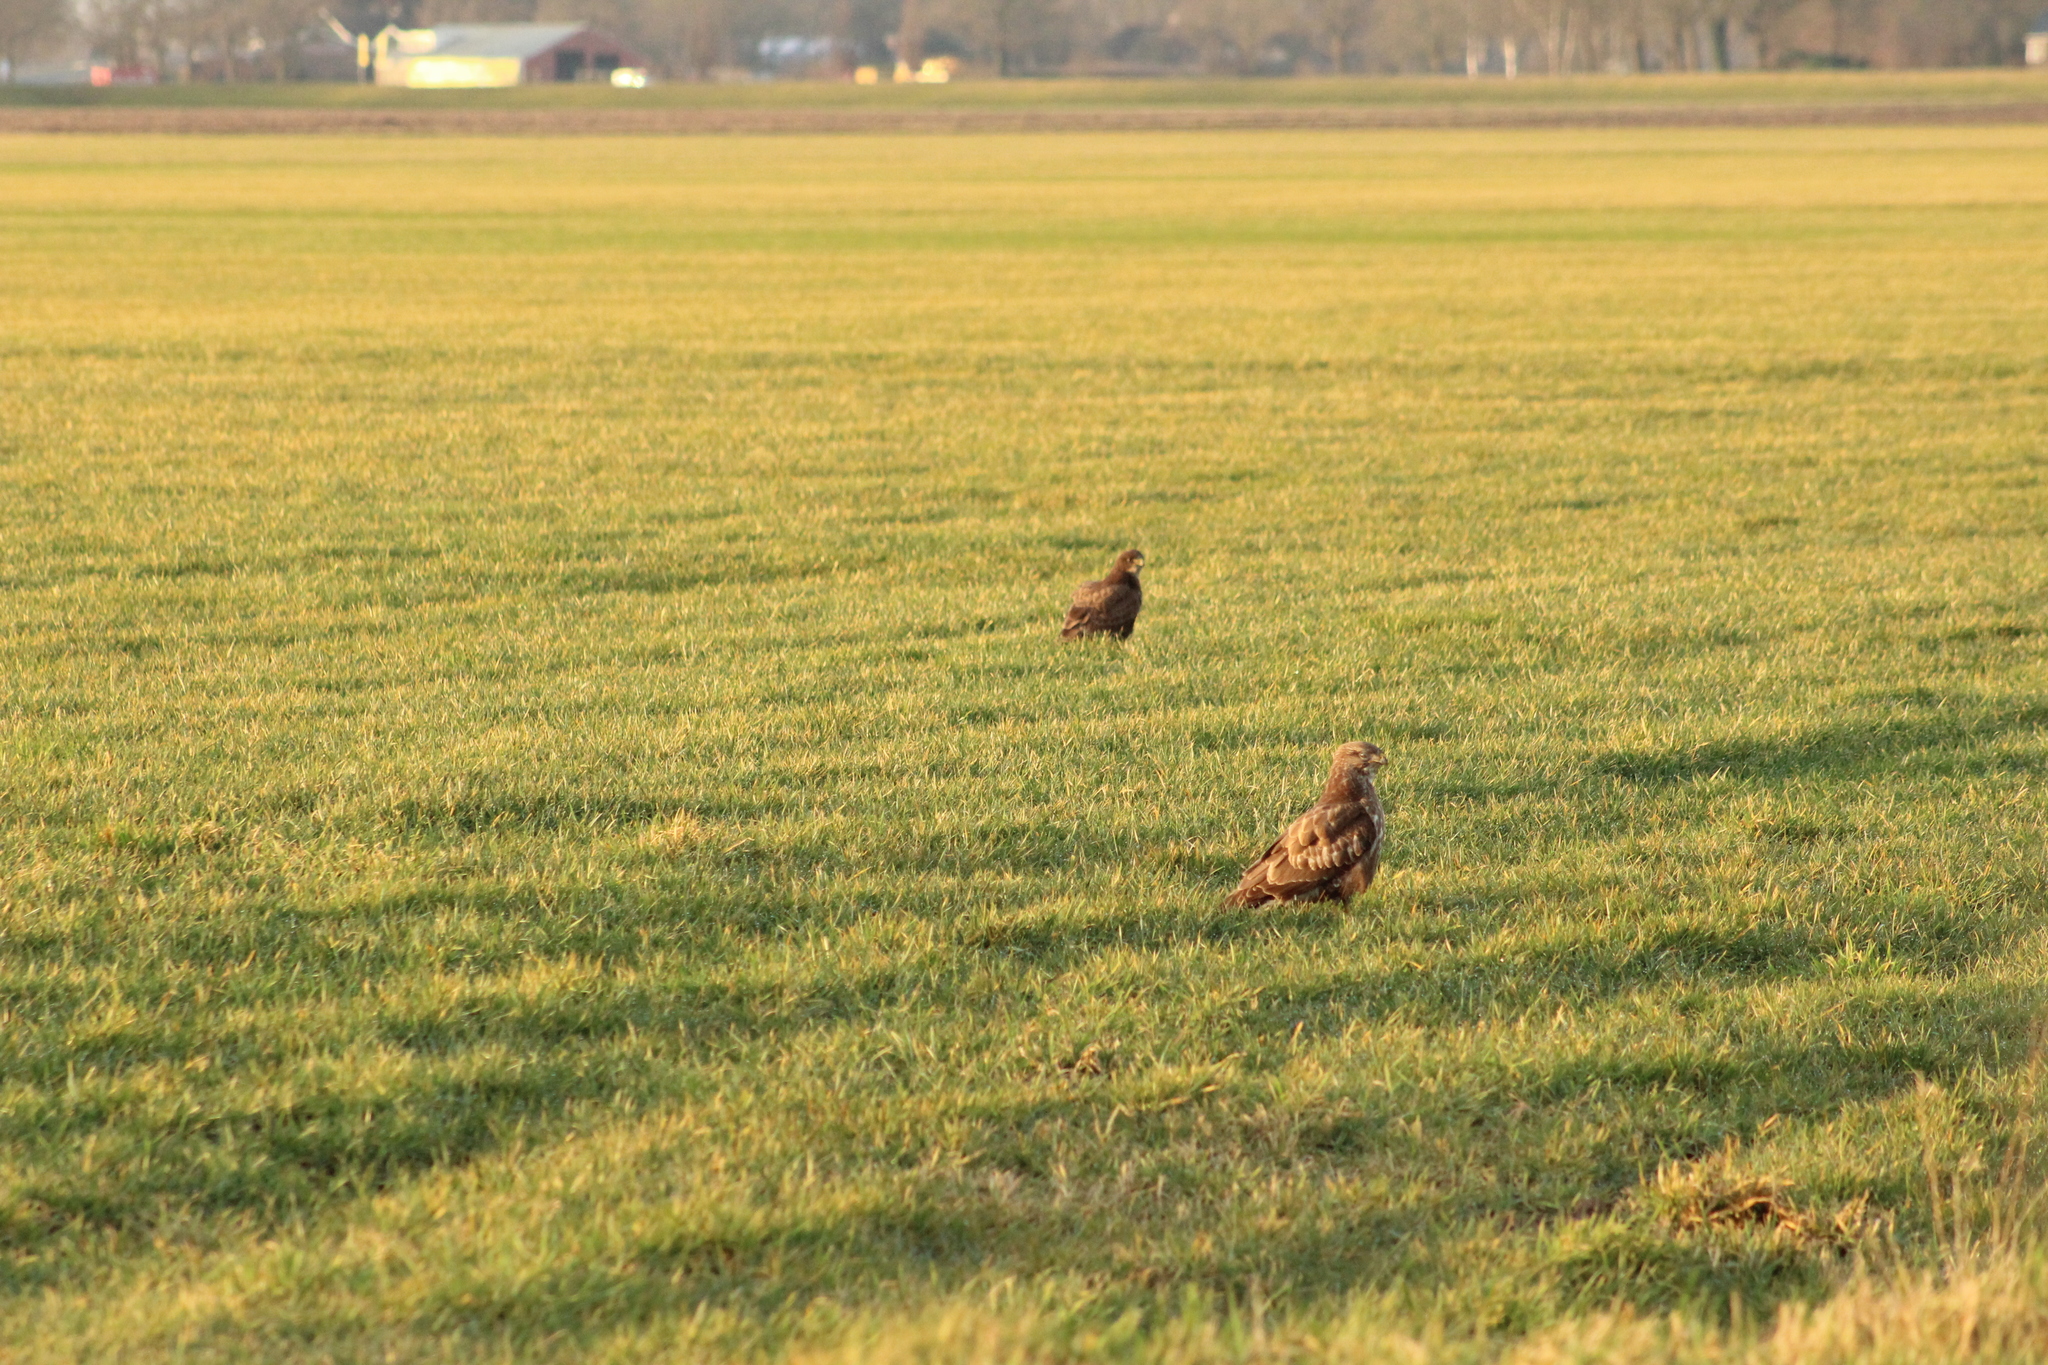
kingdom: Animalia
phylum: Chordata
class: Aves
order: Accipitriformes
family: Accipitridae
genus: Buteo
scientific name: Buteo buteo
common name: Common buzzard
